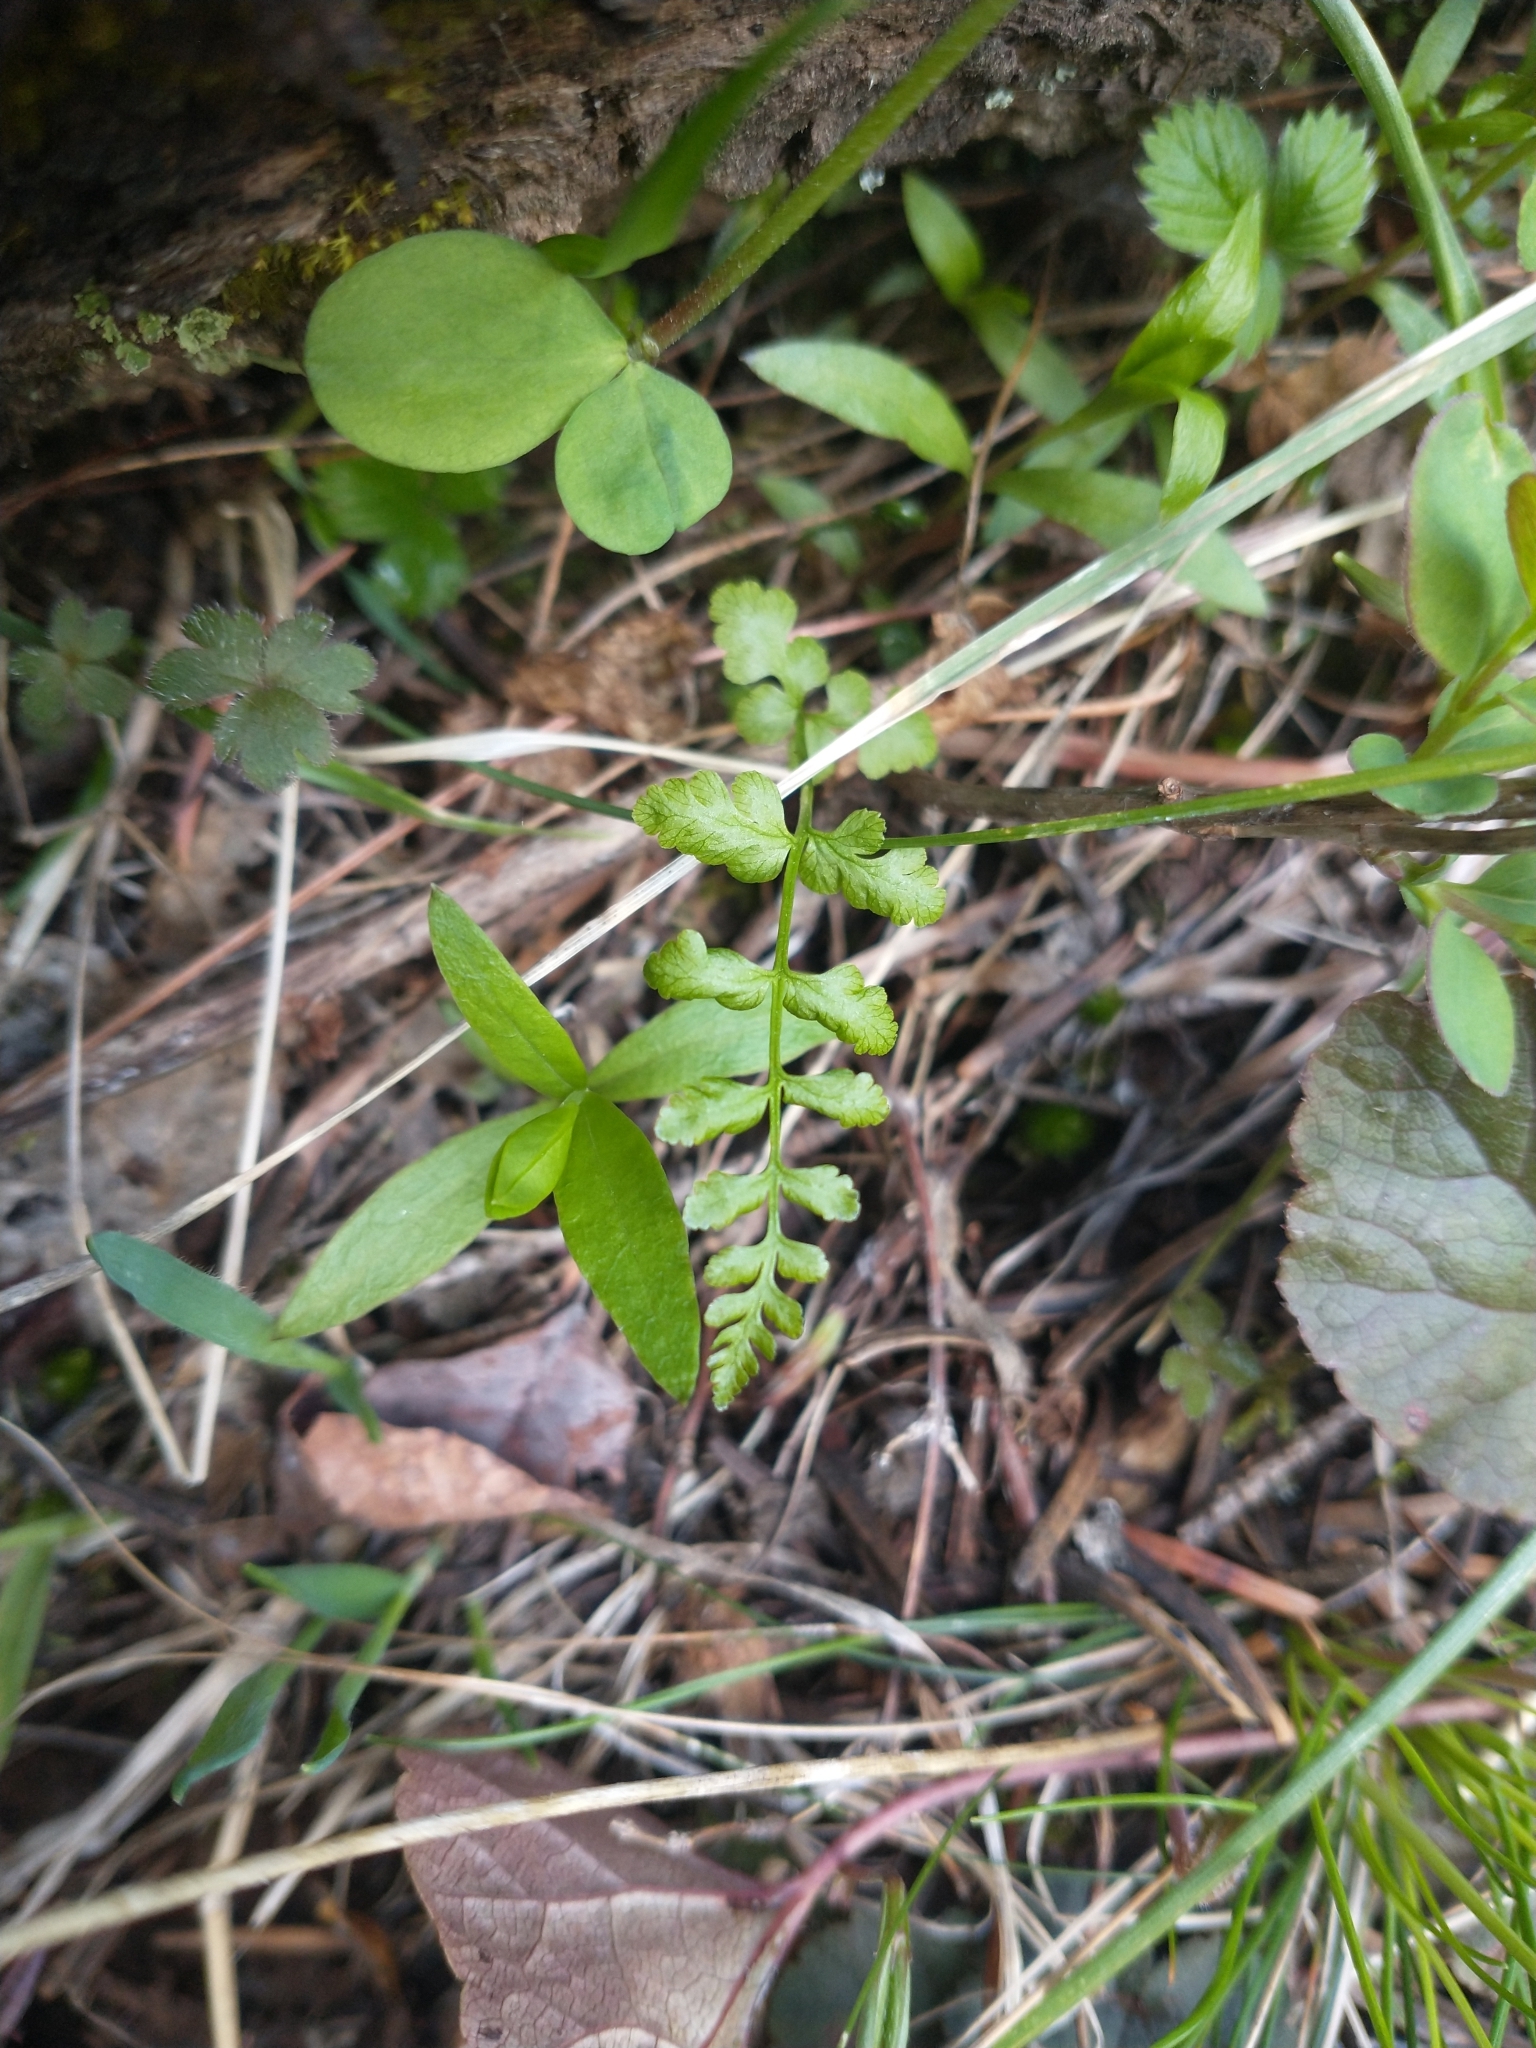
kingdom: Plantae
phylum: Tracheophyta
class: Polypodiopsida
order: Polypodiales
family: Cystopteridaceae
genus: Cystopteris
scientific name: Cystopteris fragilis
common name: Brittle bladder fern
